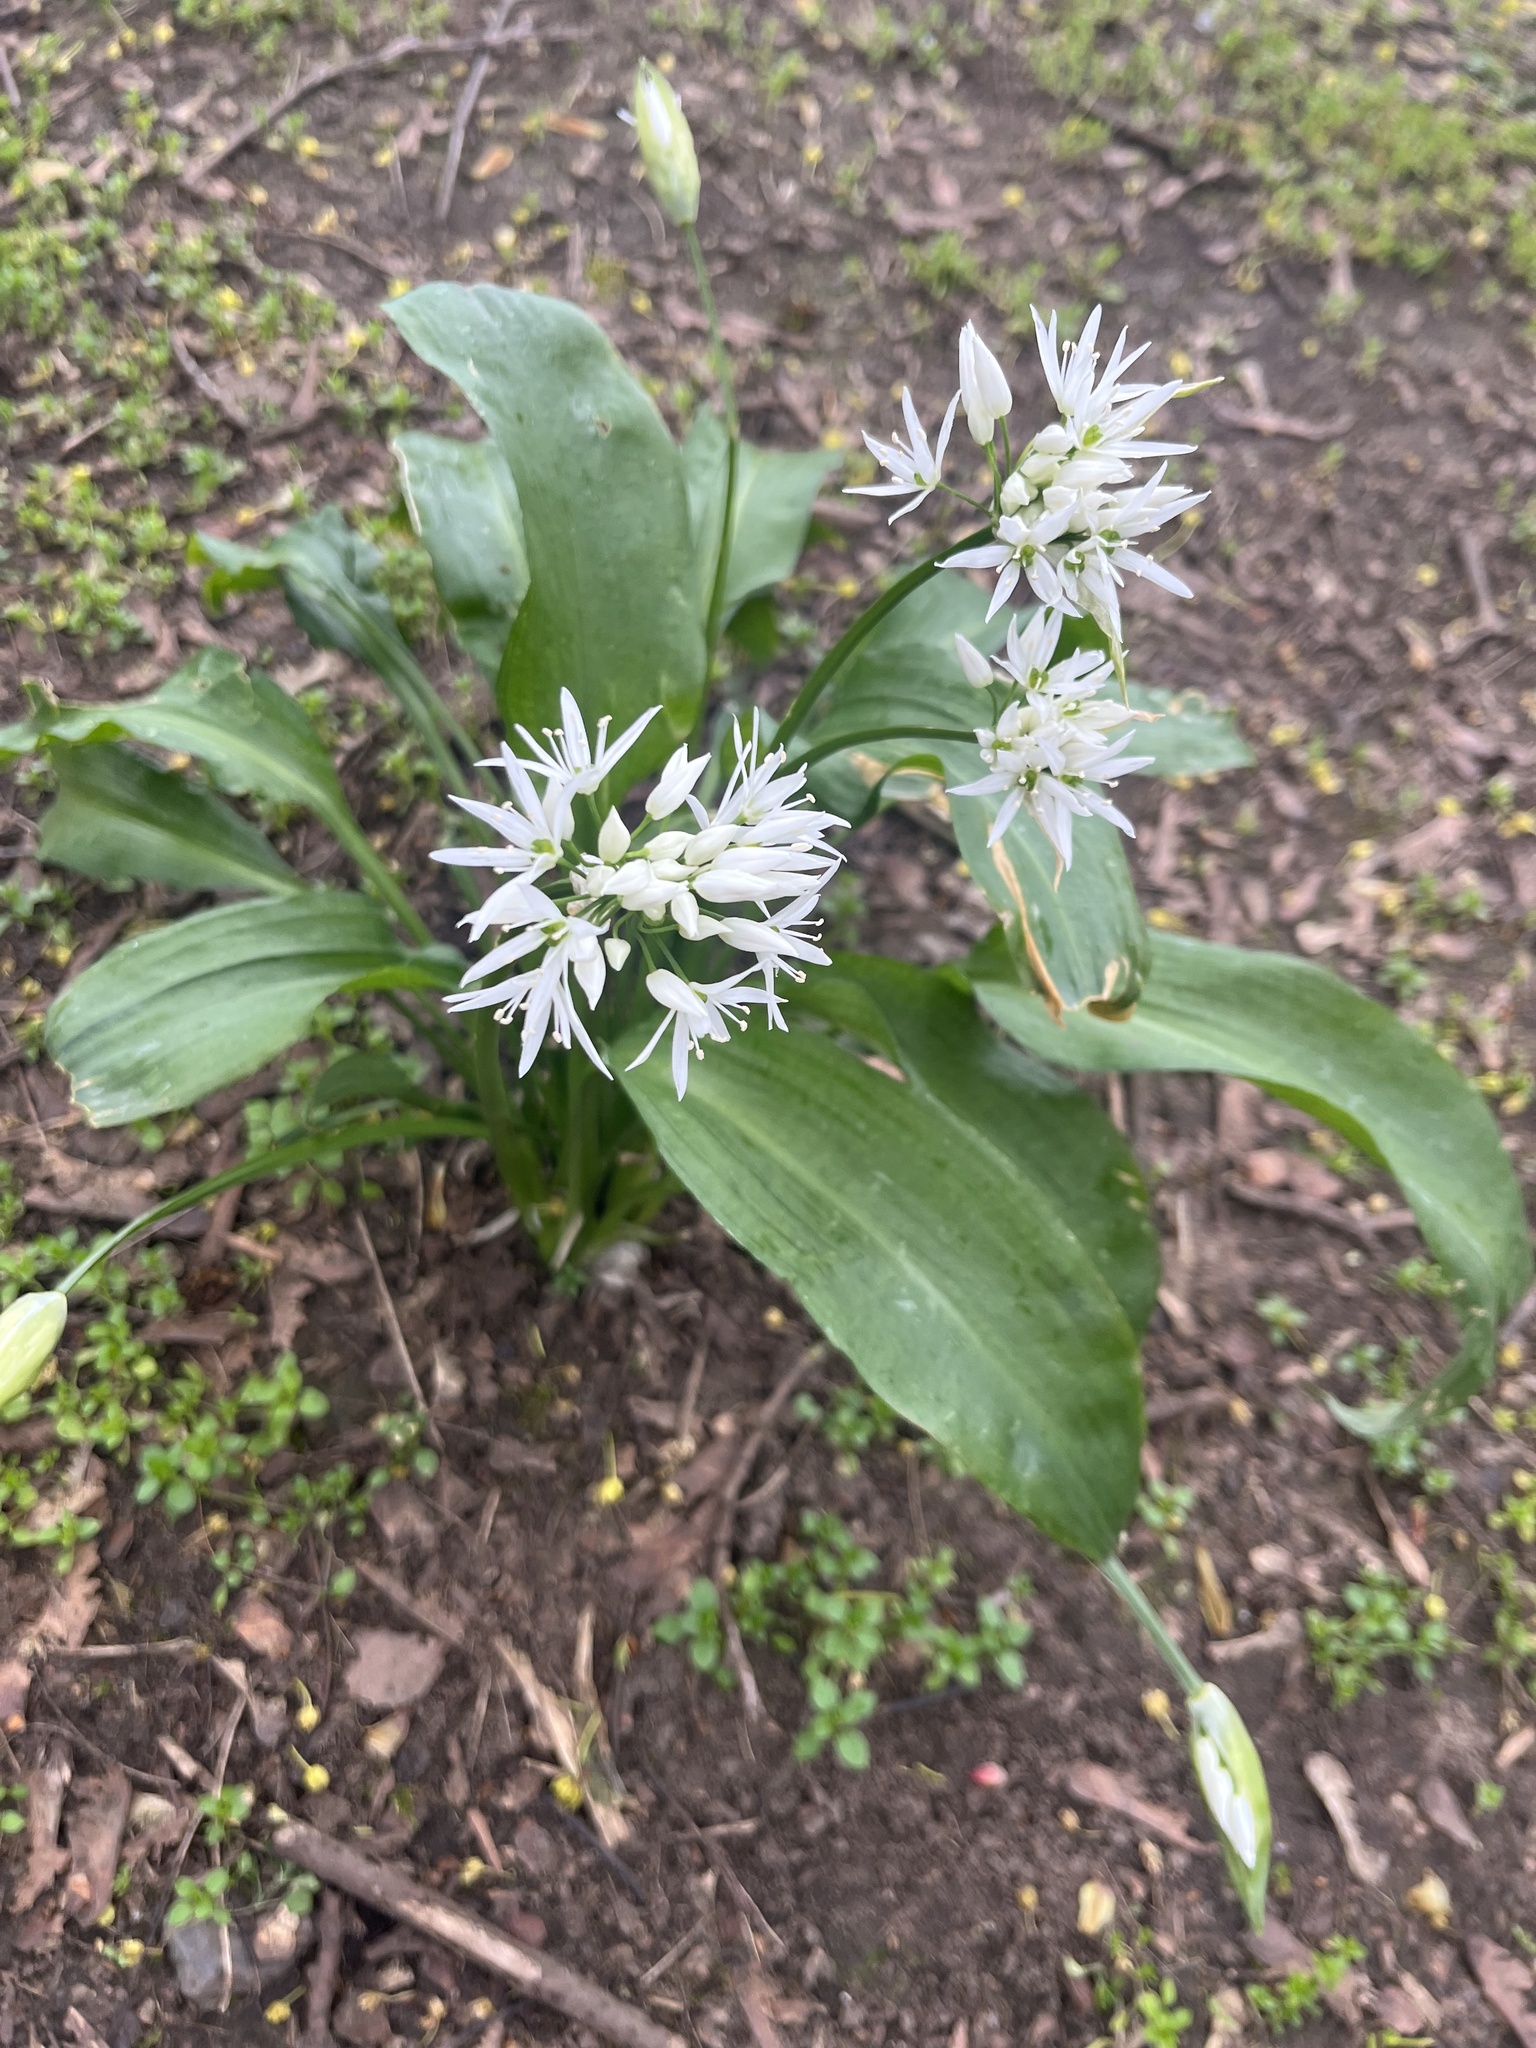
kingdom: Plantae
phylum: Tracheophyta
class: Liliopsida
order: Asparagales
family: Amaryllidaceae
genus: Allium
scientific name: Allium ursinum
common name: Ramsons
